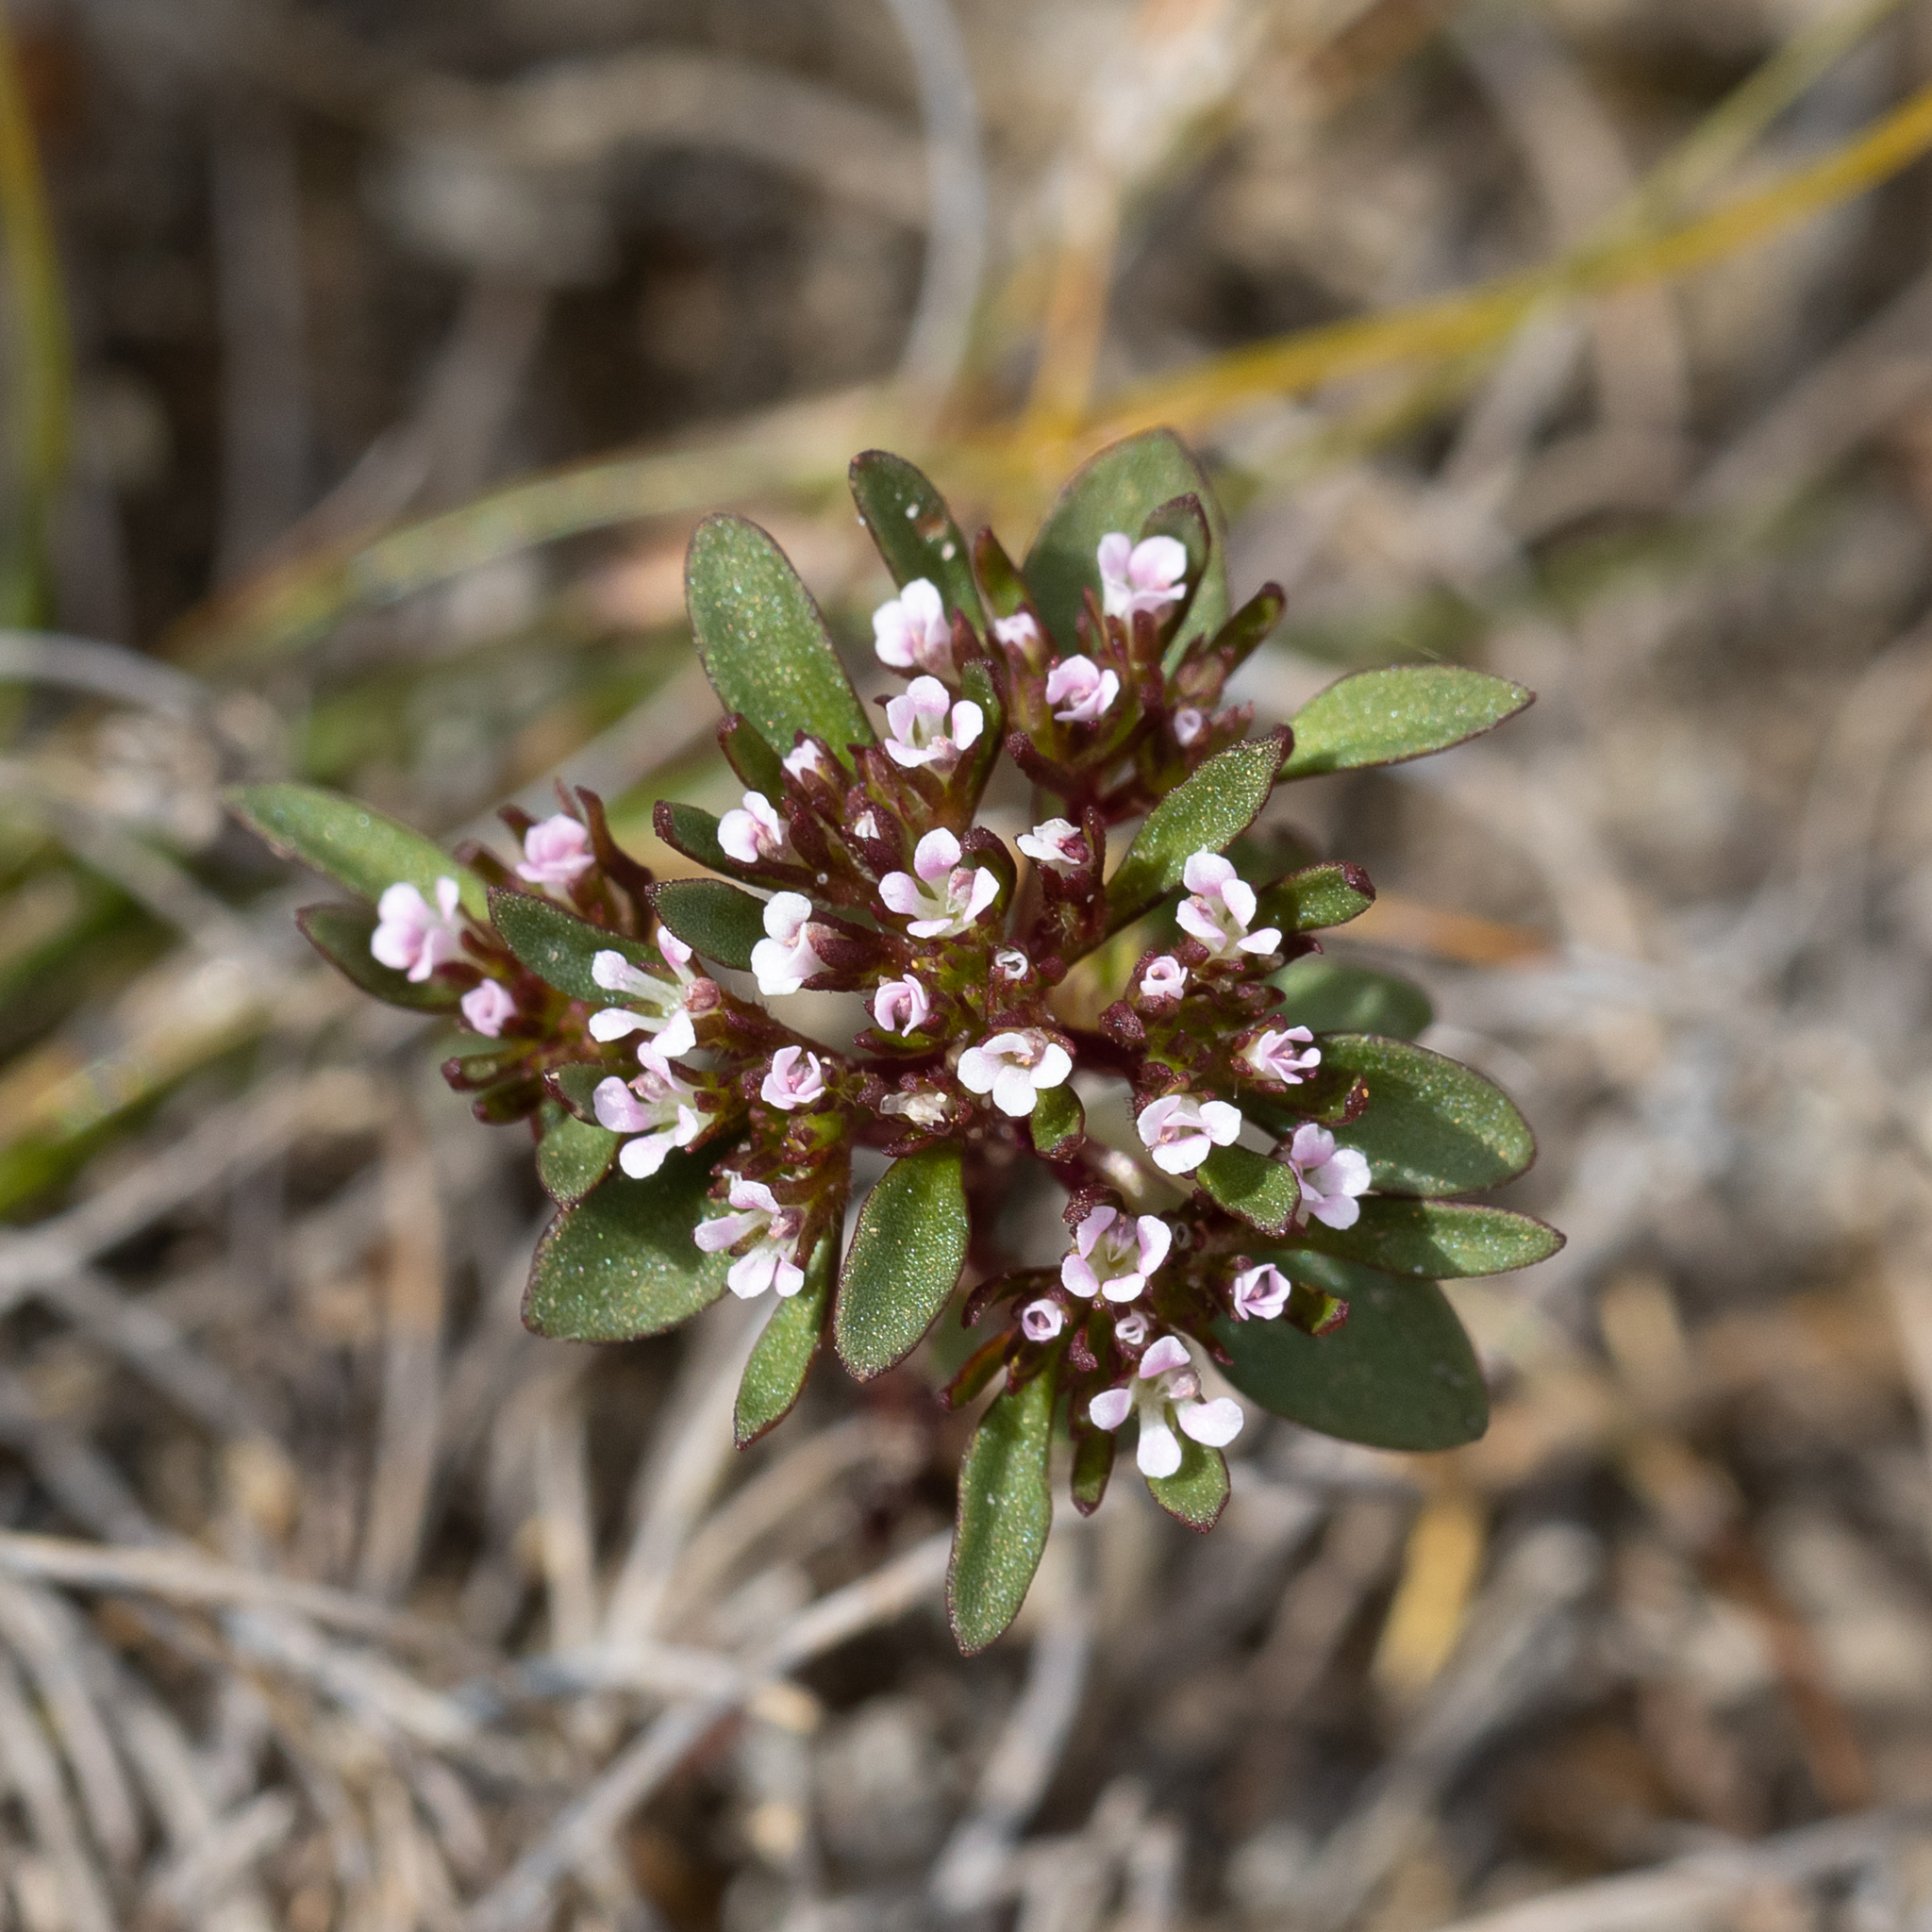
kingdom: Plantae
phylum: Tracheophyta
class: Magnoliopsida
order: Asterales
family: Stylidiaceae
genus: Levenhookia
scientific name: Levenhookia pusilla
